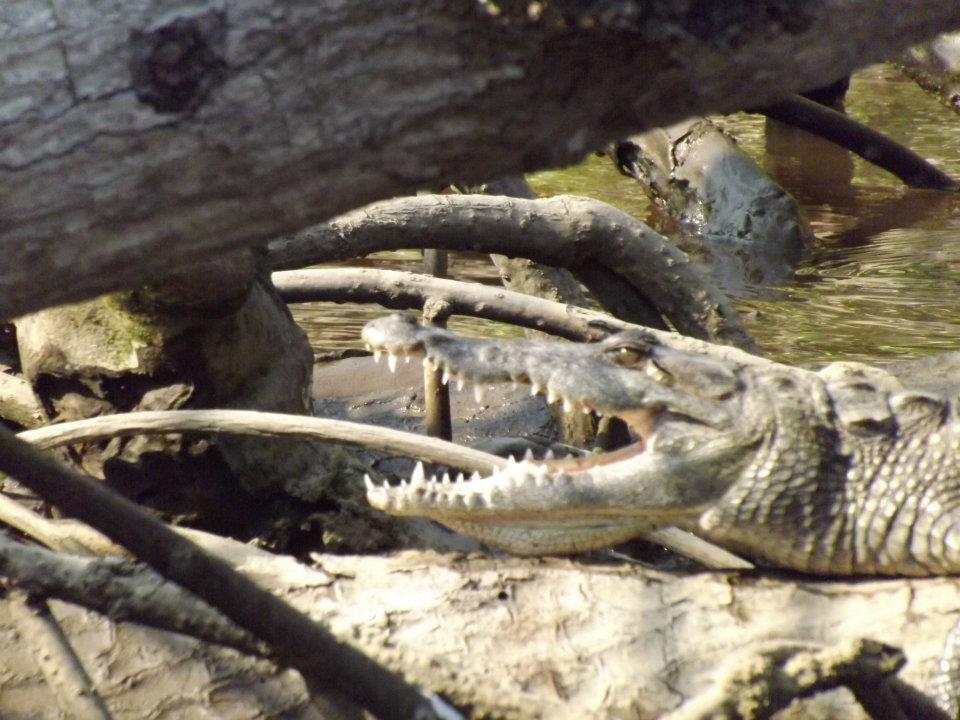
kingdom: Animalia
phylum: Chordata
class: Crocodylia
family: Crocodylidae
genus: Crocodylus
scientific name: Crocodylus moreletii
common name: Morelet's crocodile
